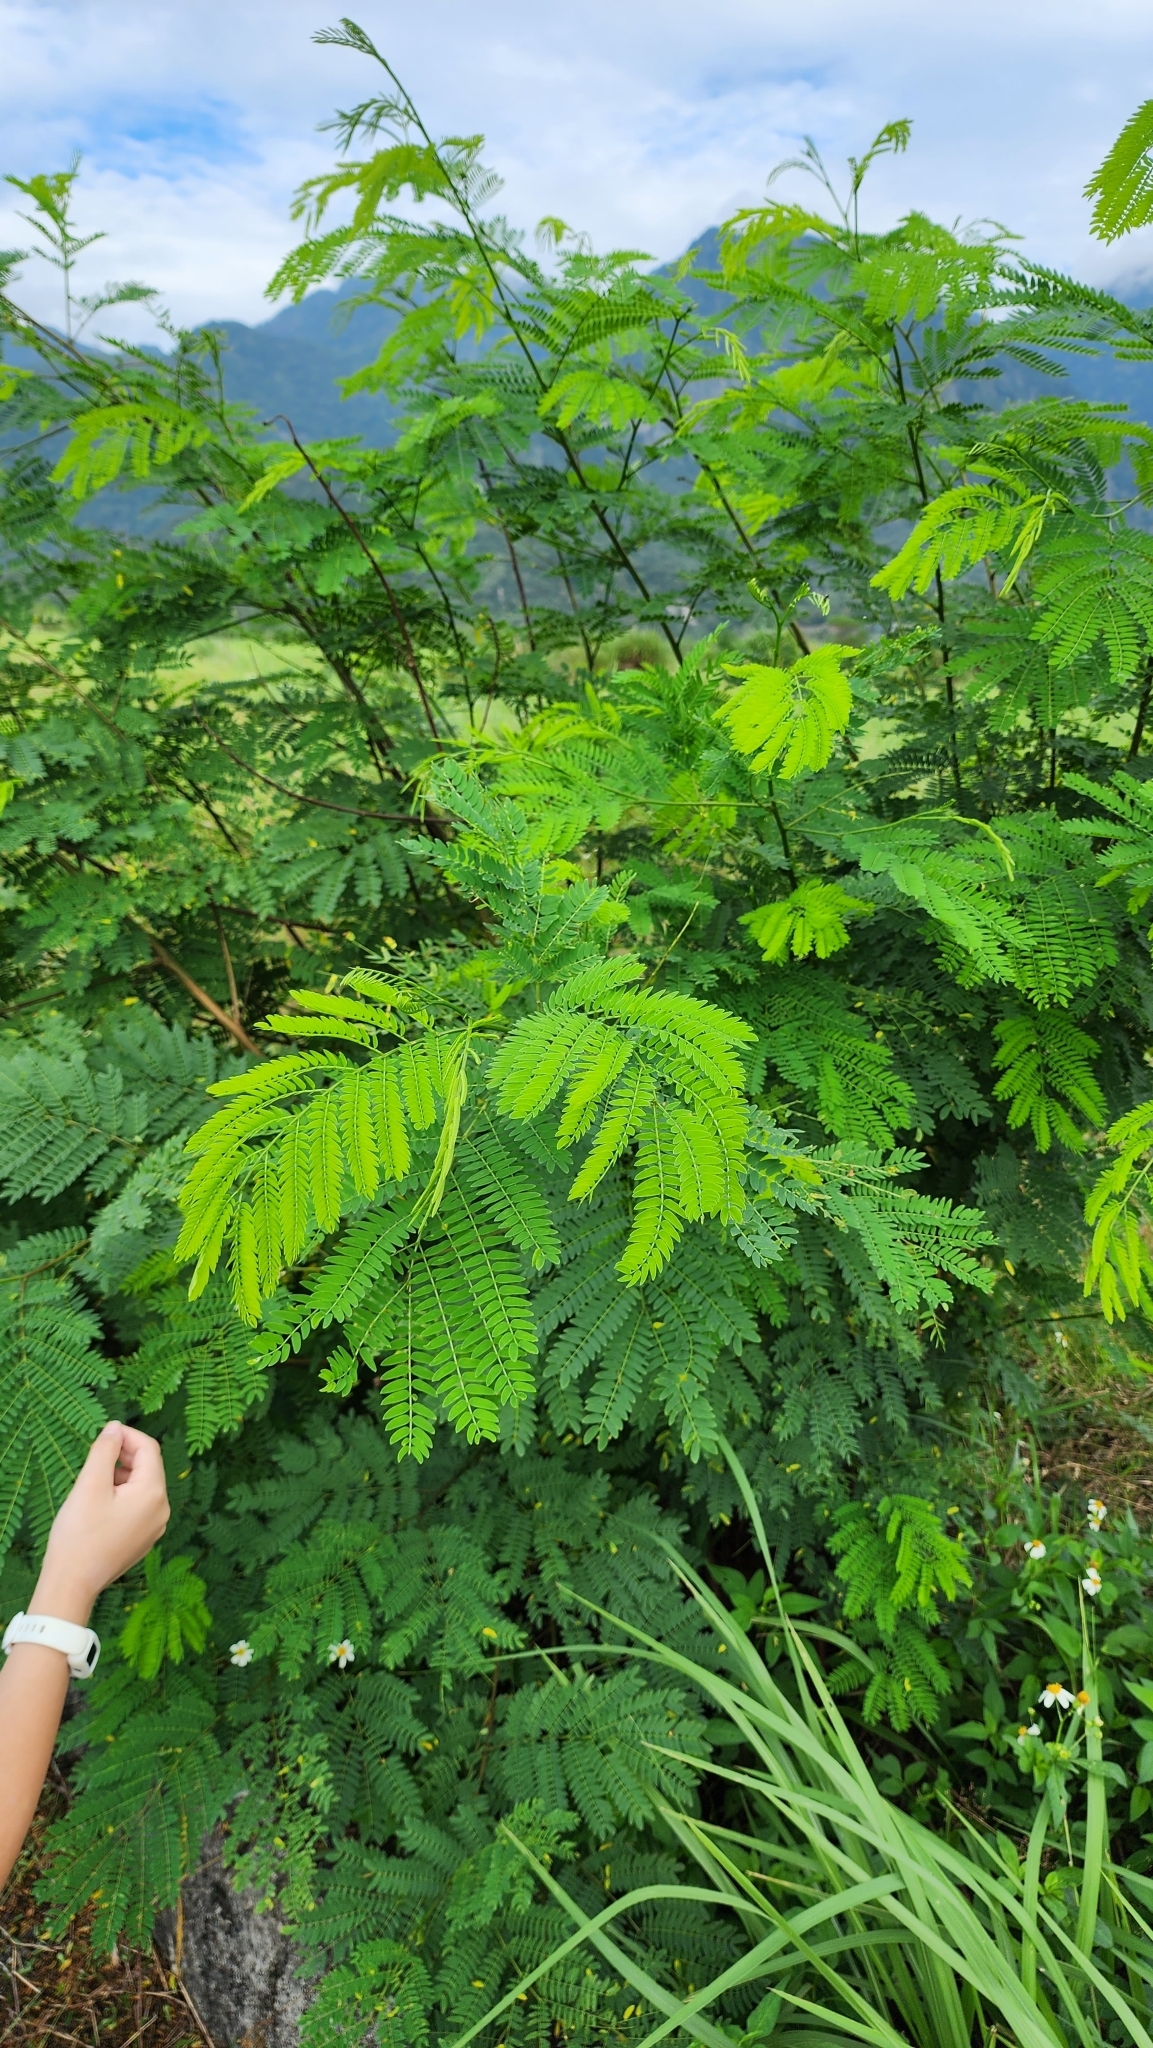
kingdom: Plantae
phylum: Tracheophyta
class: Magnoliopsida
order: Fabales
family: Fabaceae
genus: Leucaena
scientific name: Leucaena leucocephala
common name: White leadtree
